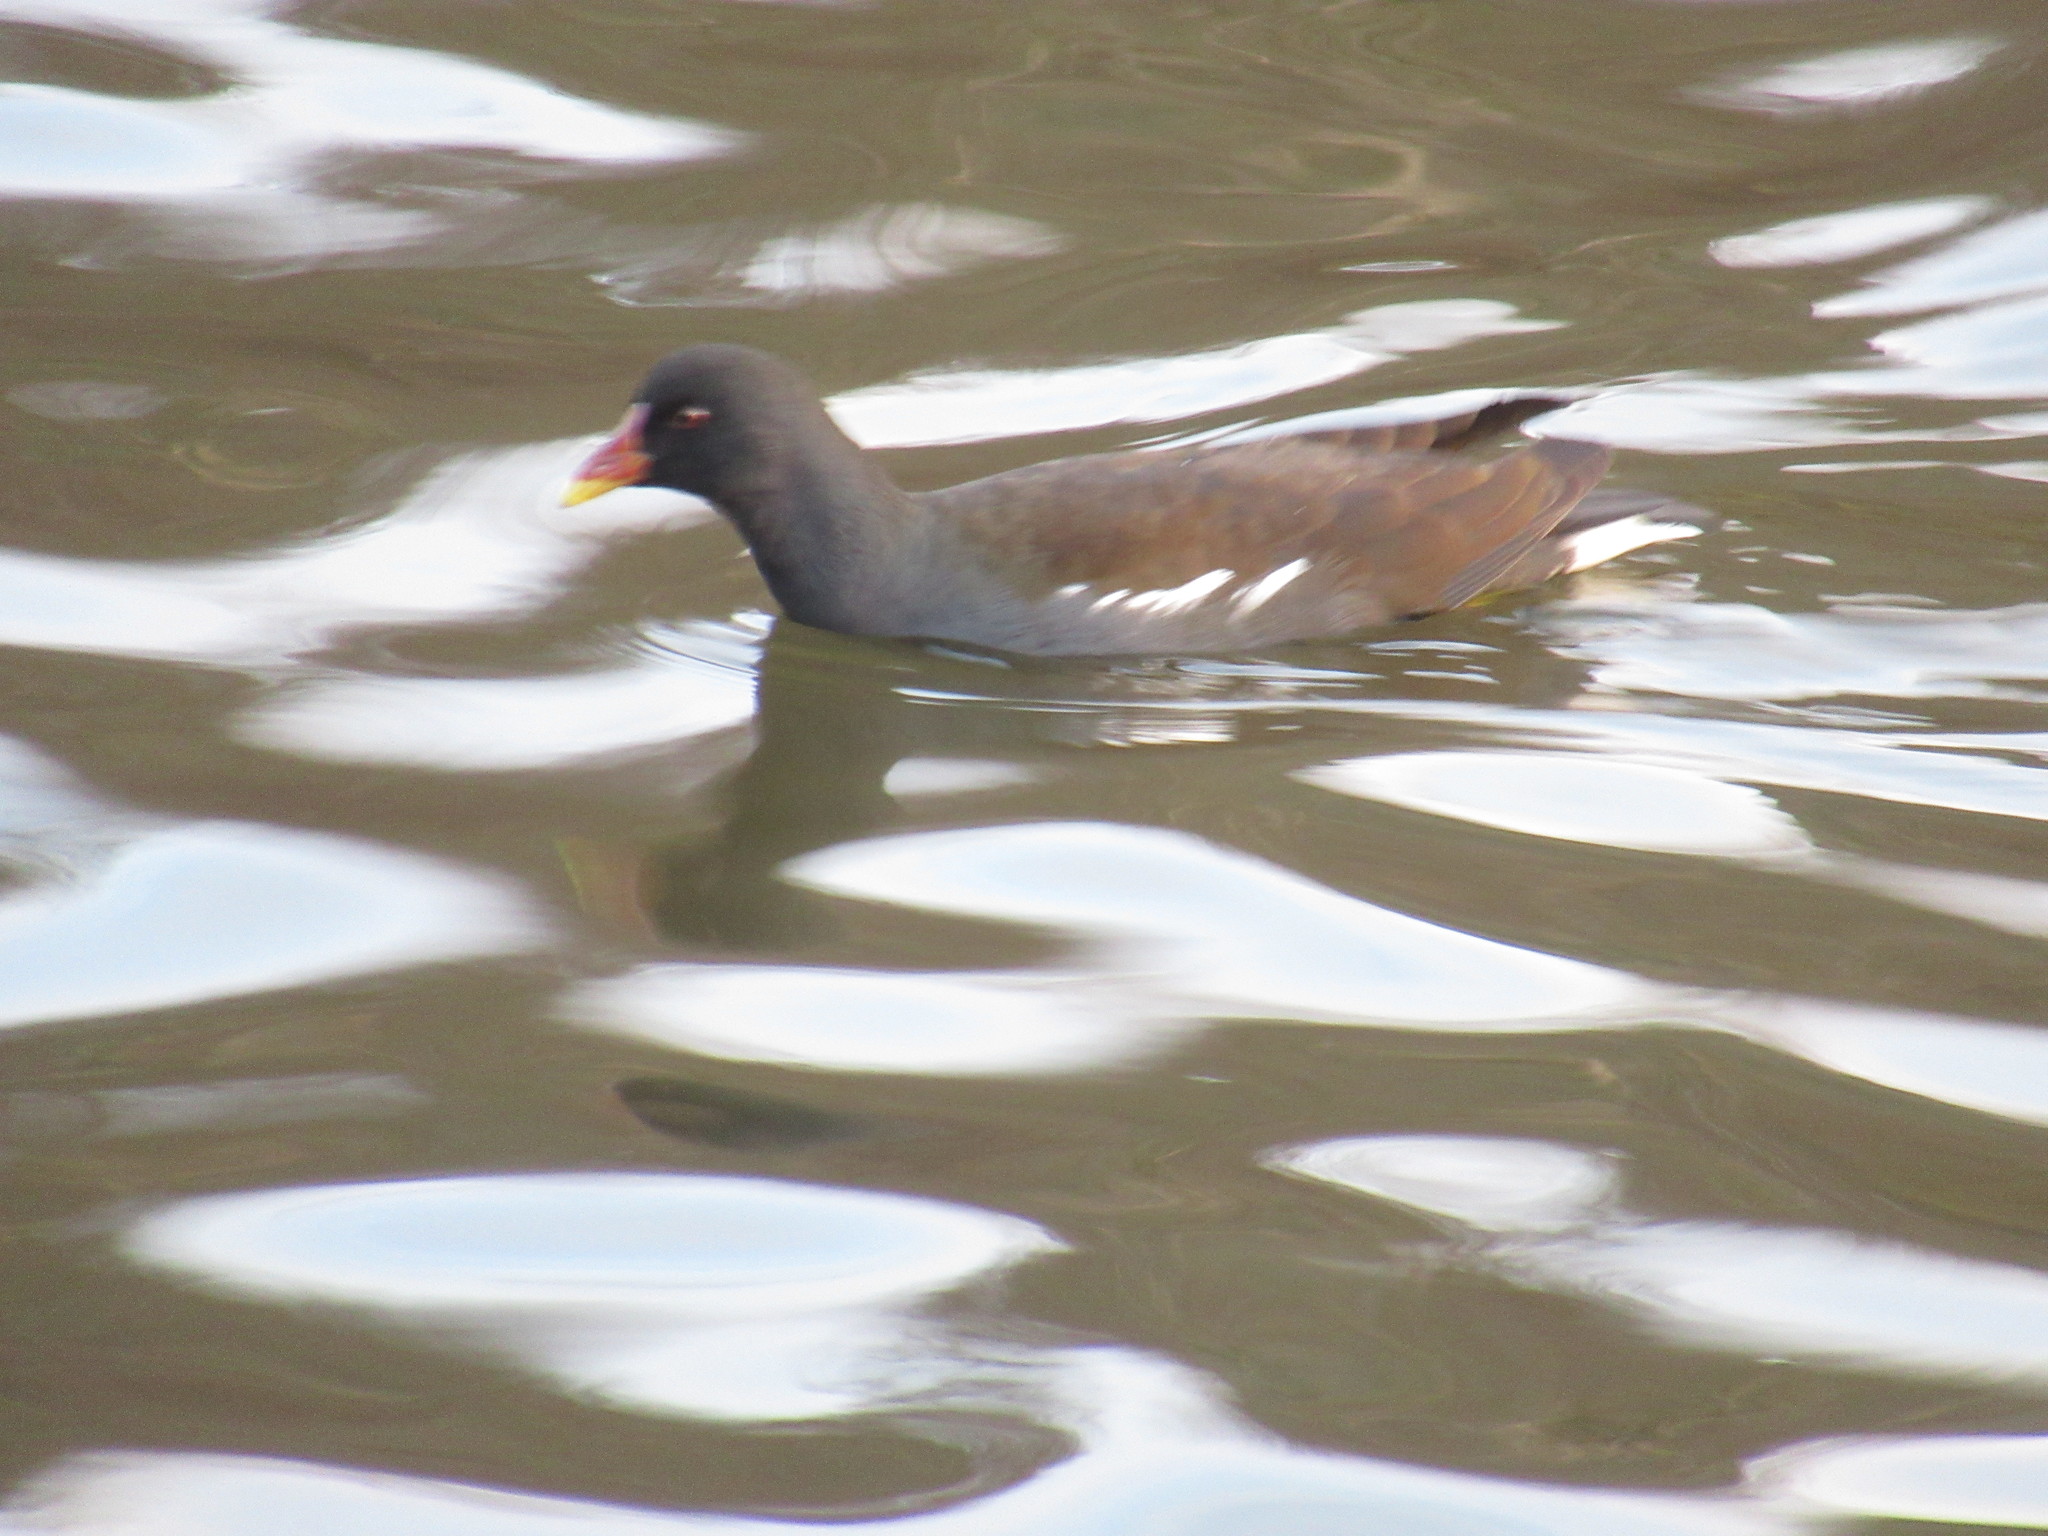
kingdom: Animalia
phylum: Chordata
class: Aves
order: Gruiformes
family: Rallidae
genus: Gallinula
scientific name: Gallinula chloropus
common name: Common moorhen
